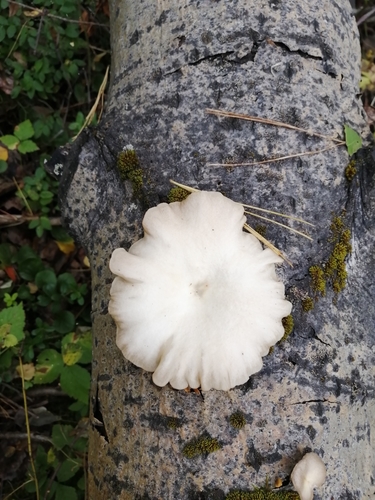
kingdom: Fungi
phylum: Basidiomycota
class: Agaricomycetes
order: Agaricales
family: Pleurotaceae
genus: Pleurotus
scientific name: Pleurotus pulmonarius
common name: Pale oyster
